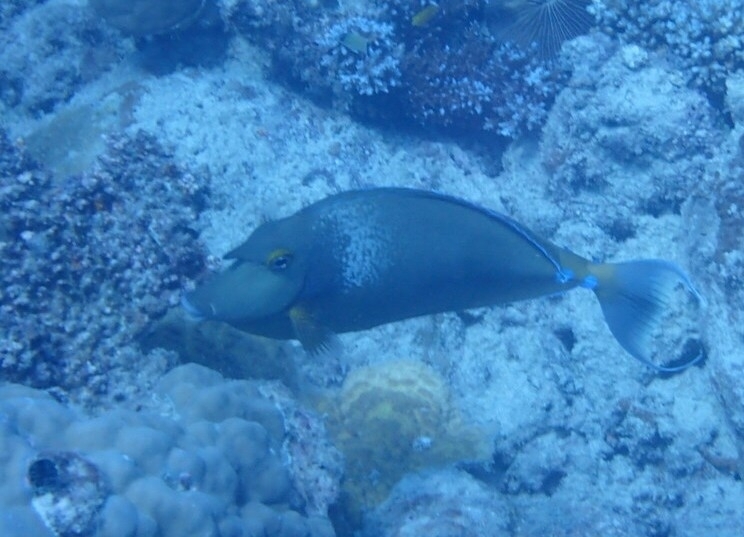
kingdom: Animalia
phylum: Chordata
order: Perciformes
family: Acanthuridae
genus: Naso
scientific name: Naso unicornis
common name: Bluespine unicornfish
